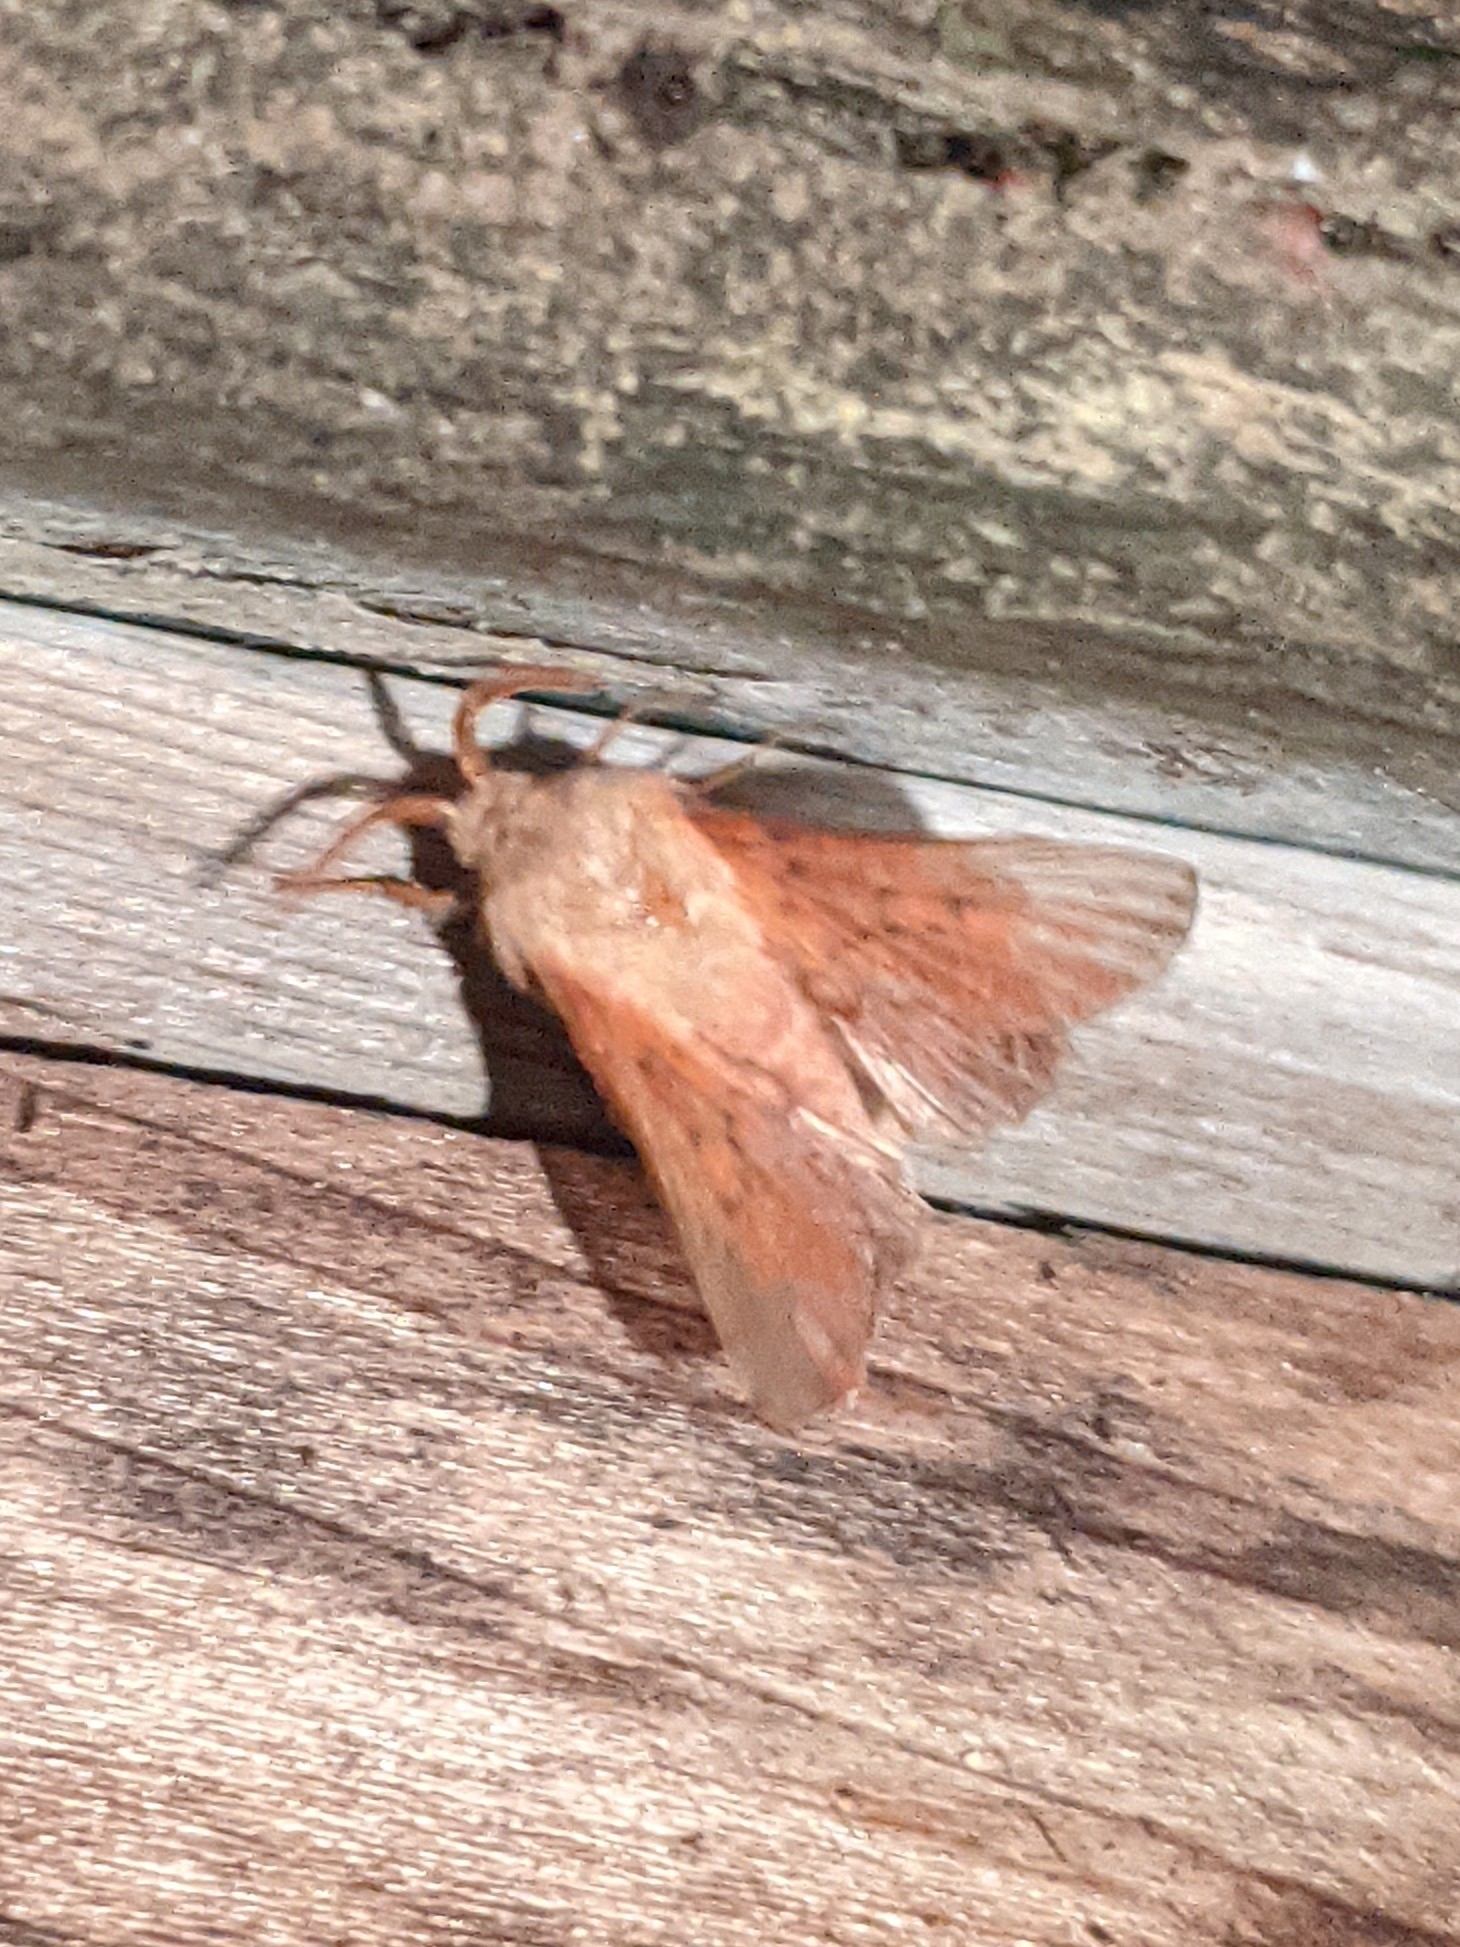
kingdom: Animalia
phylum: Arthropoda
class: Insecta
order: Lepidoptera
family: Lasiocampidae
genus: Phyllodesma
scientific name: Phyllodesma americana
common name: American lappet moth
